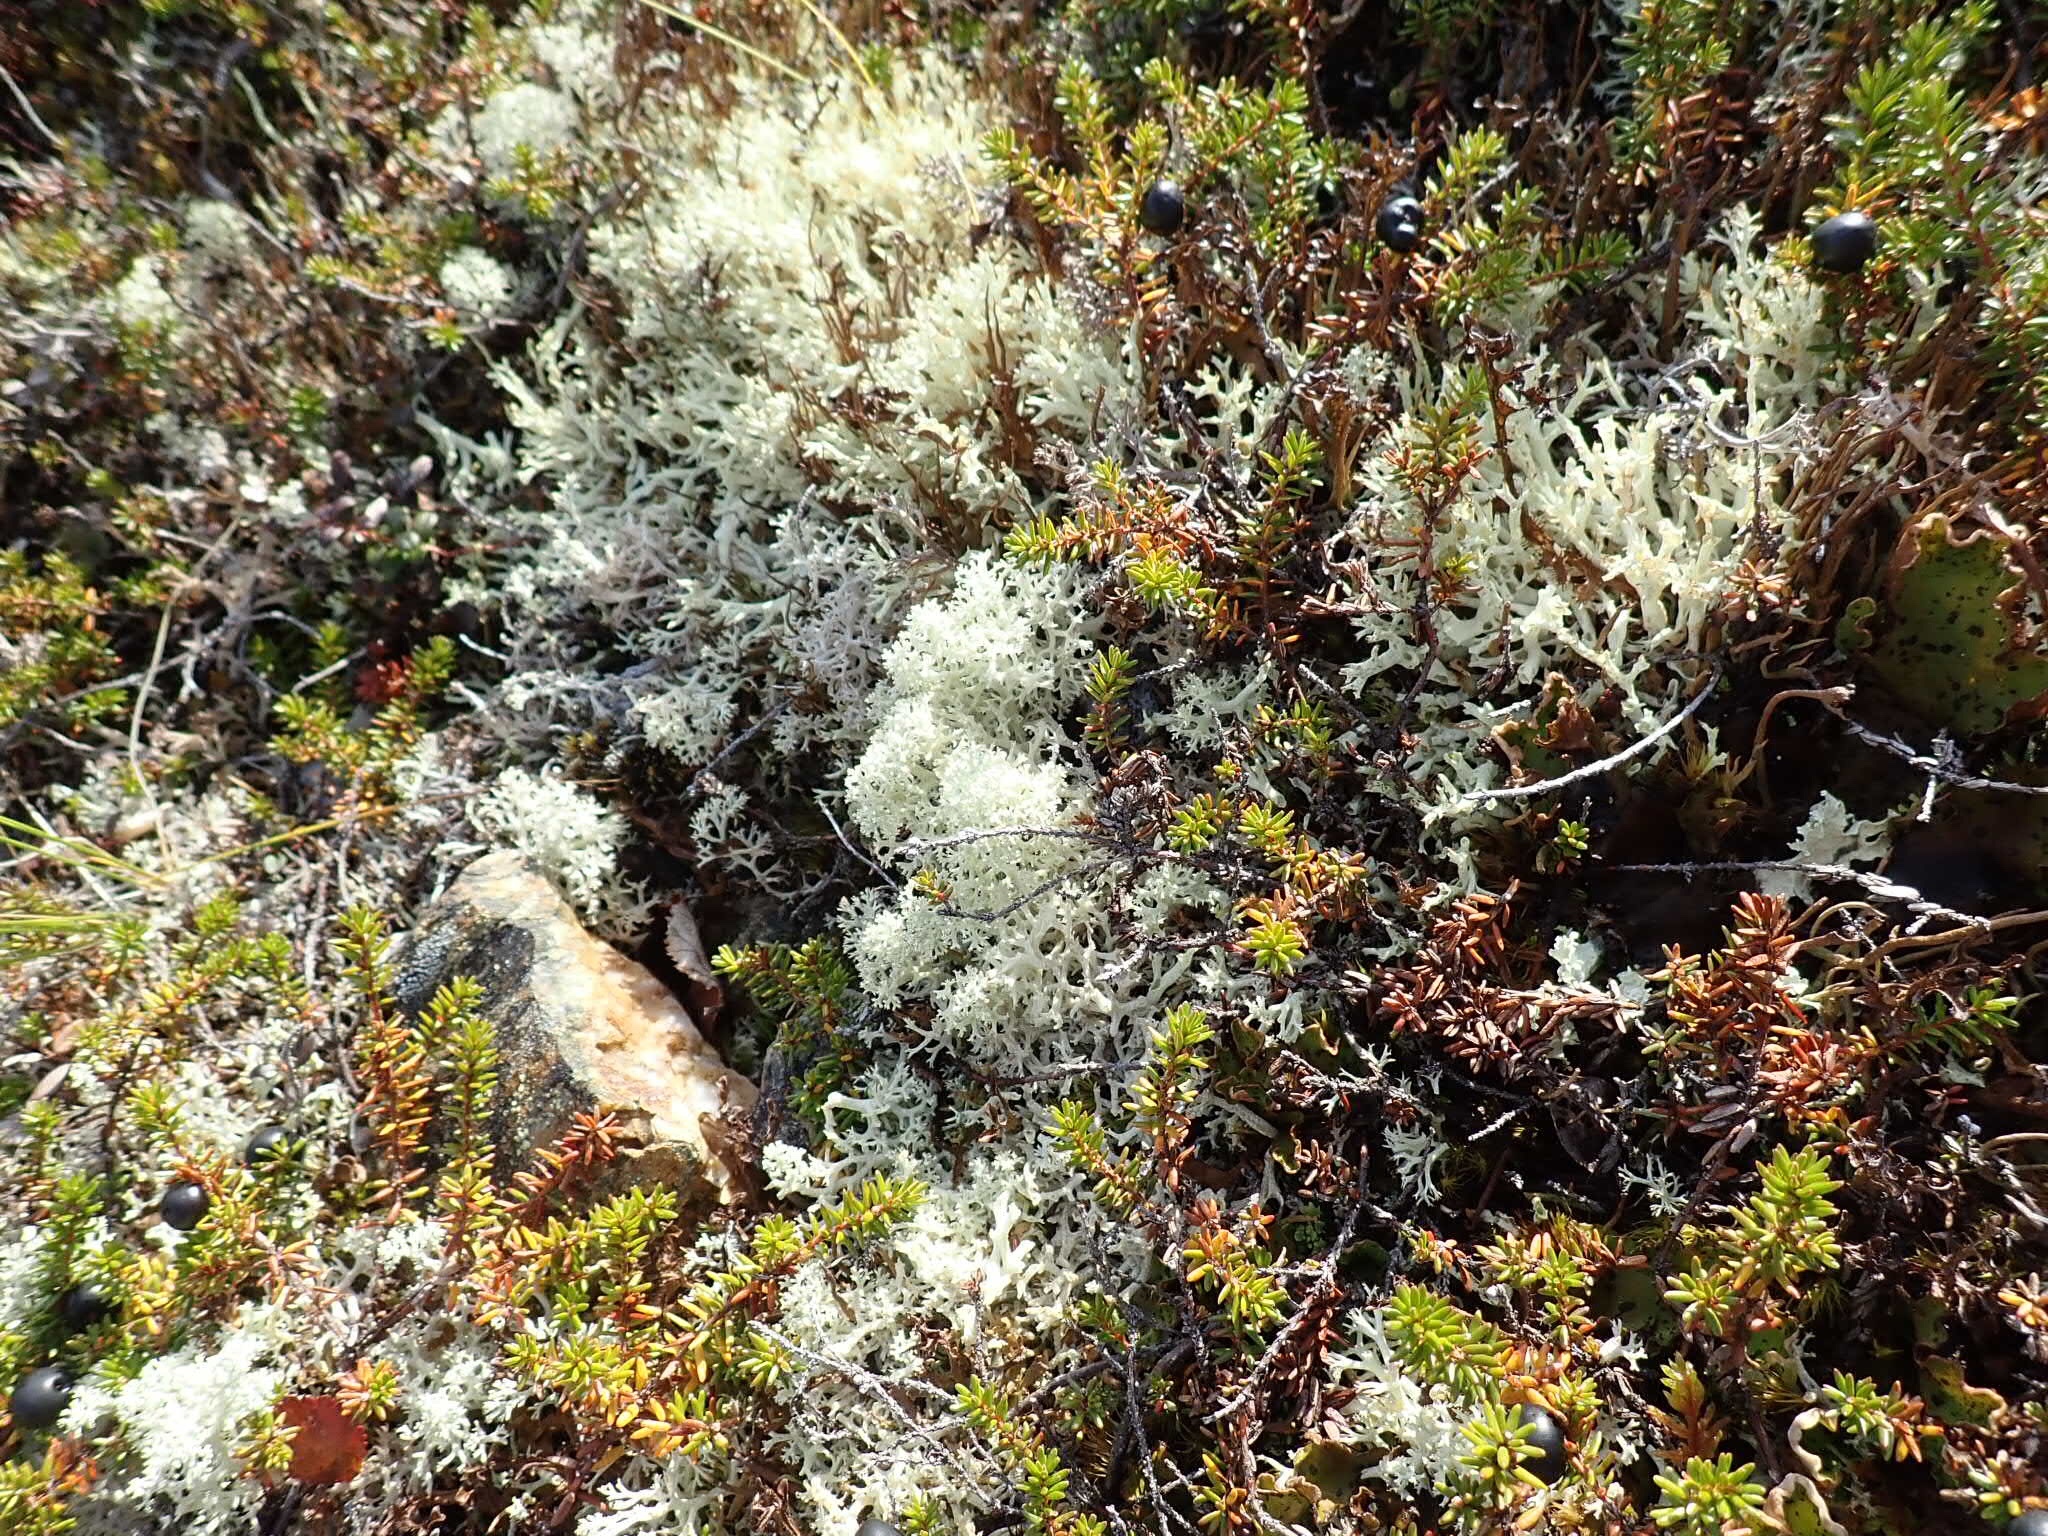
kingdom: Fungi
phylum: Ascomycota
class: Lecanoromycetes
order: Lecanorales
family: Cladoniaceae
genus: Cladonia
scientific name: Cladonia stellaris
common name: Star-tipped reindeer lichen
